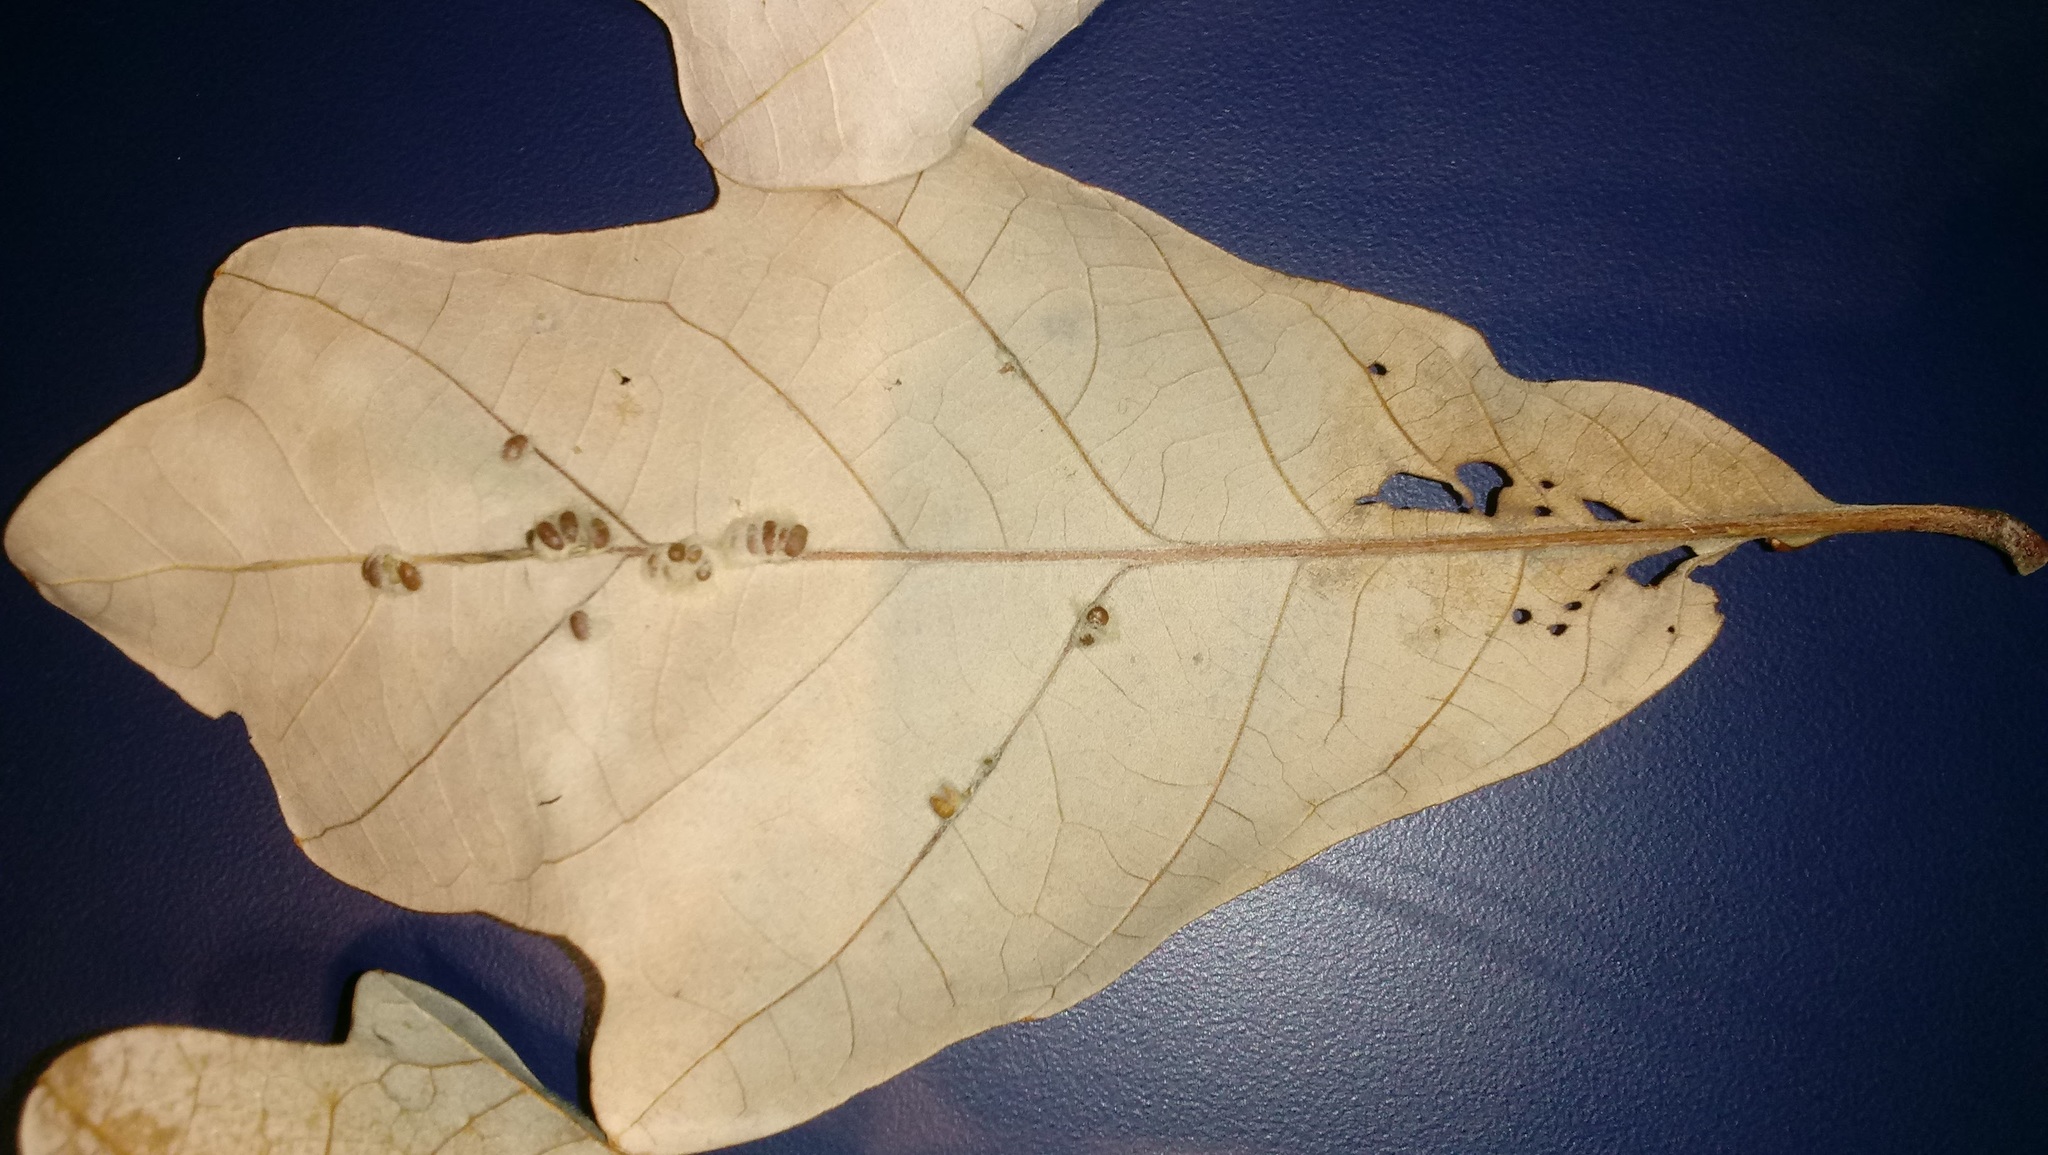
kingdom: Animalia
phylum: Arthropoda
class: Insecta
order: Hymenoptera
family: Cynipidae
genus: Andricus
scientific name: Andricus Druon ignotum
